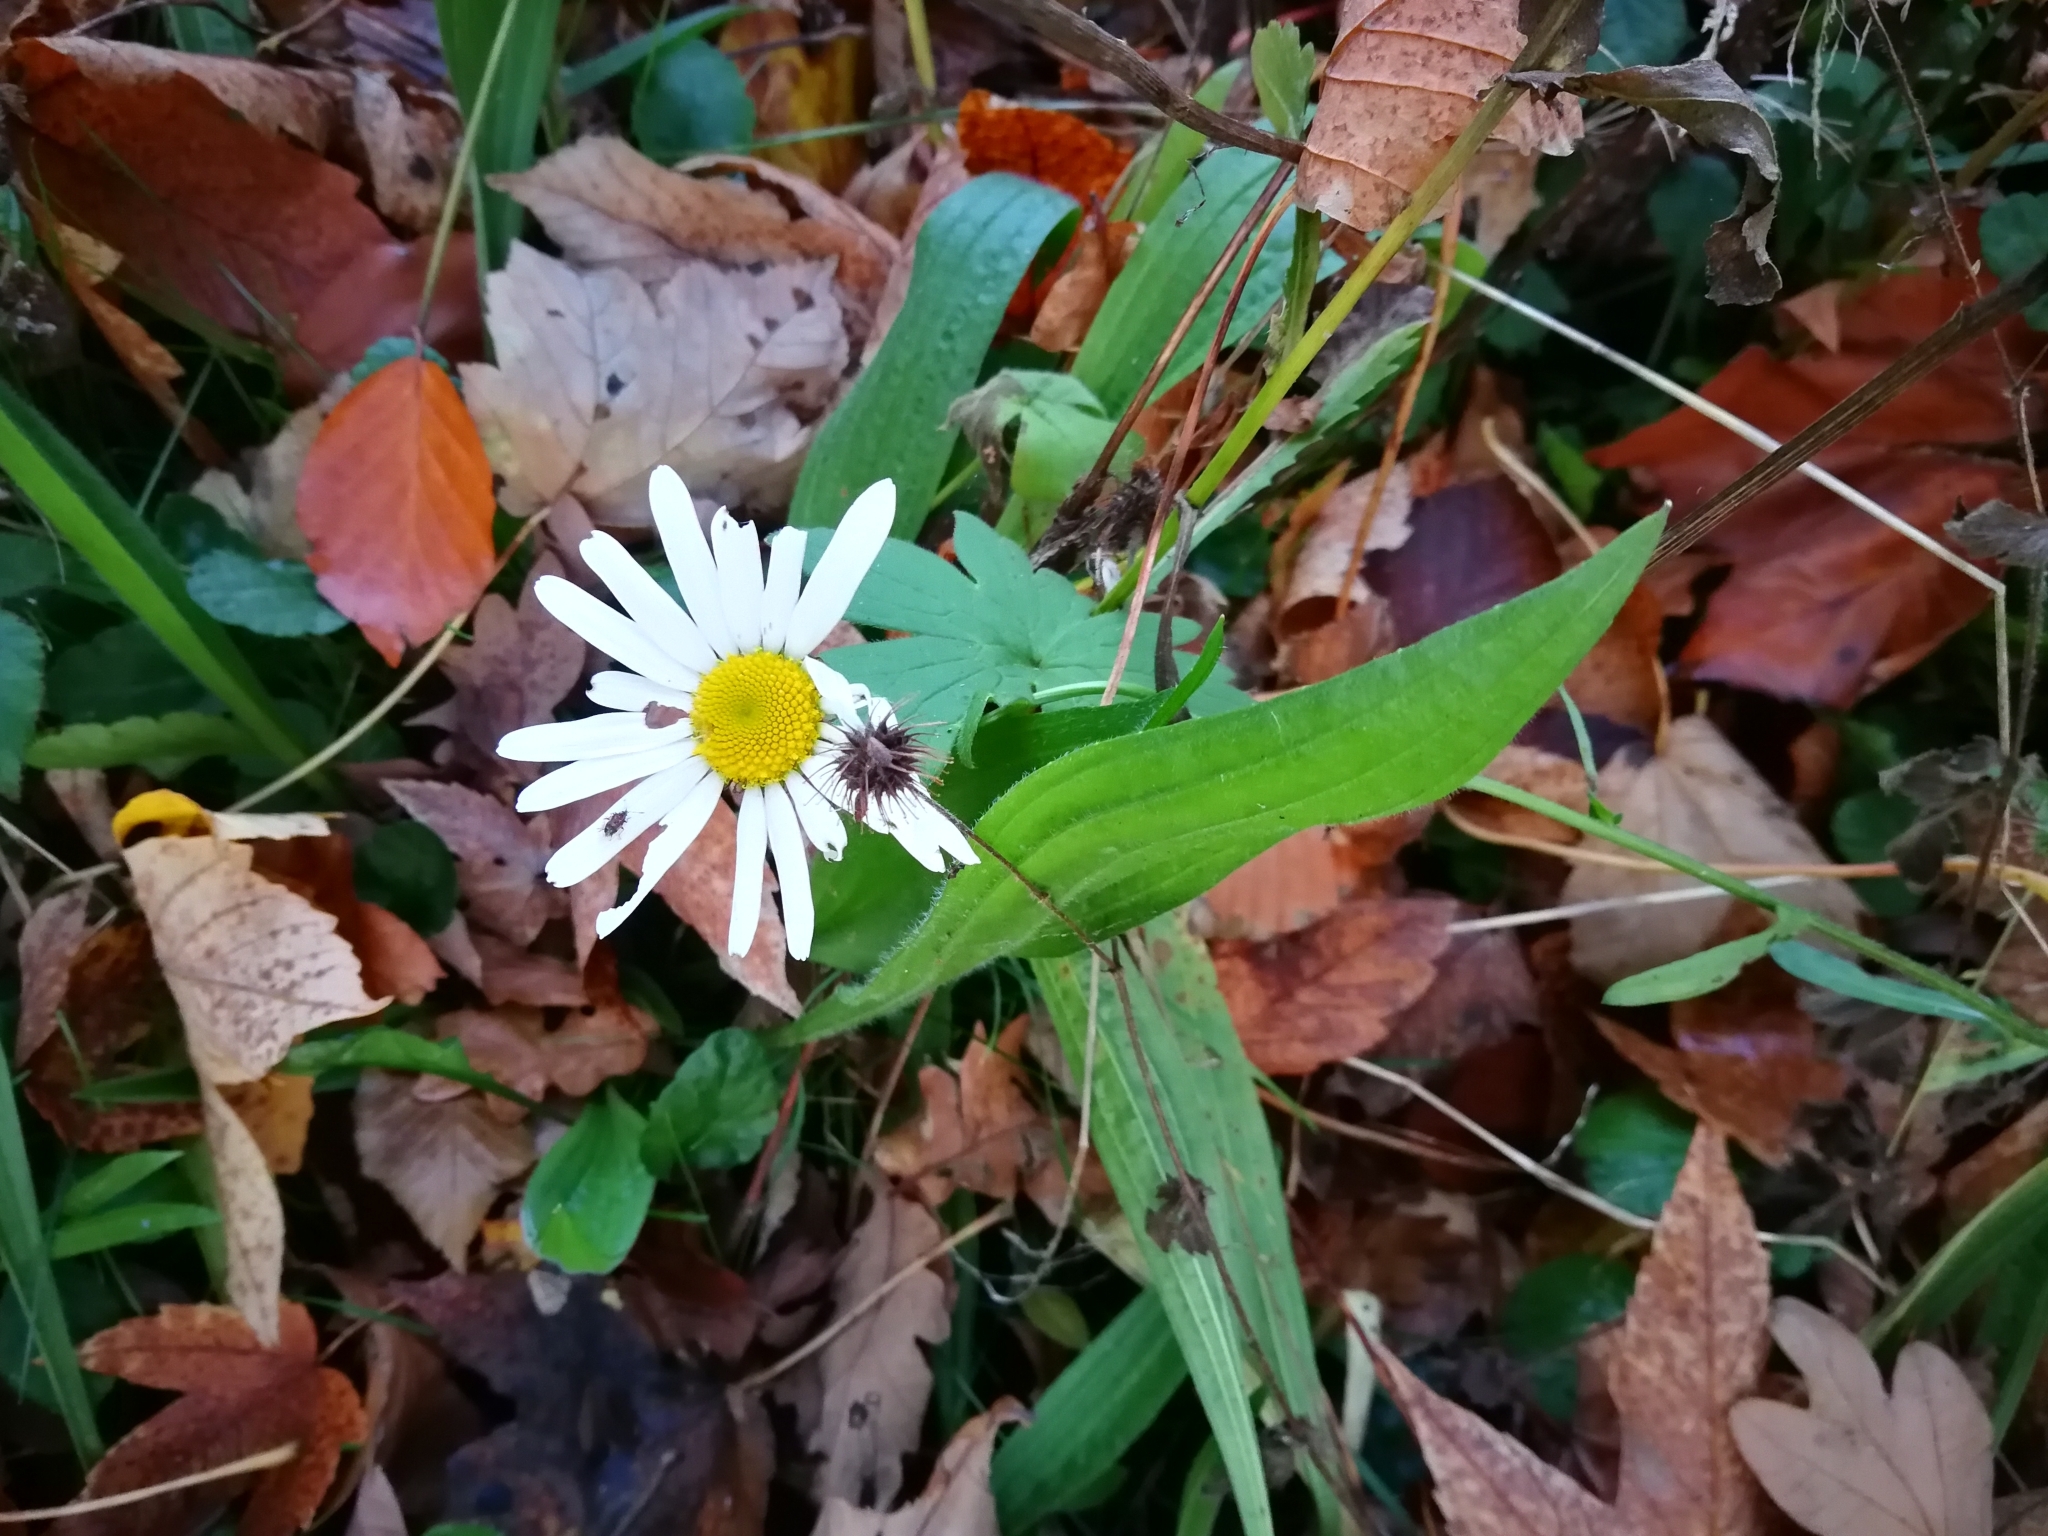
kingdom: Plantae
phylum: Tracheophyta
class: Magnoliopsida
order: Asterales
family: Asteraceae
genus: Leucanthemum
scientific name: Leucanthemum vulgare
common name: Oxeye daisy
